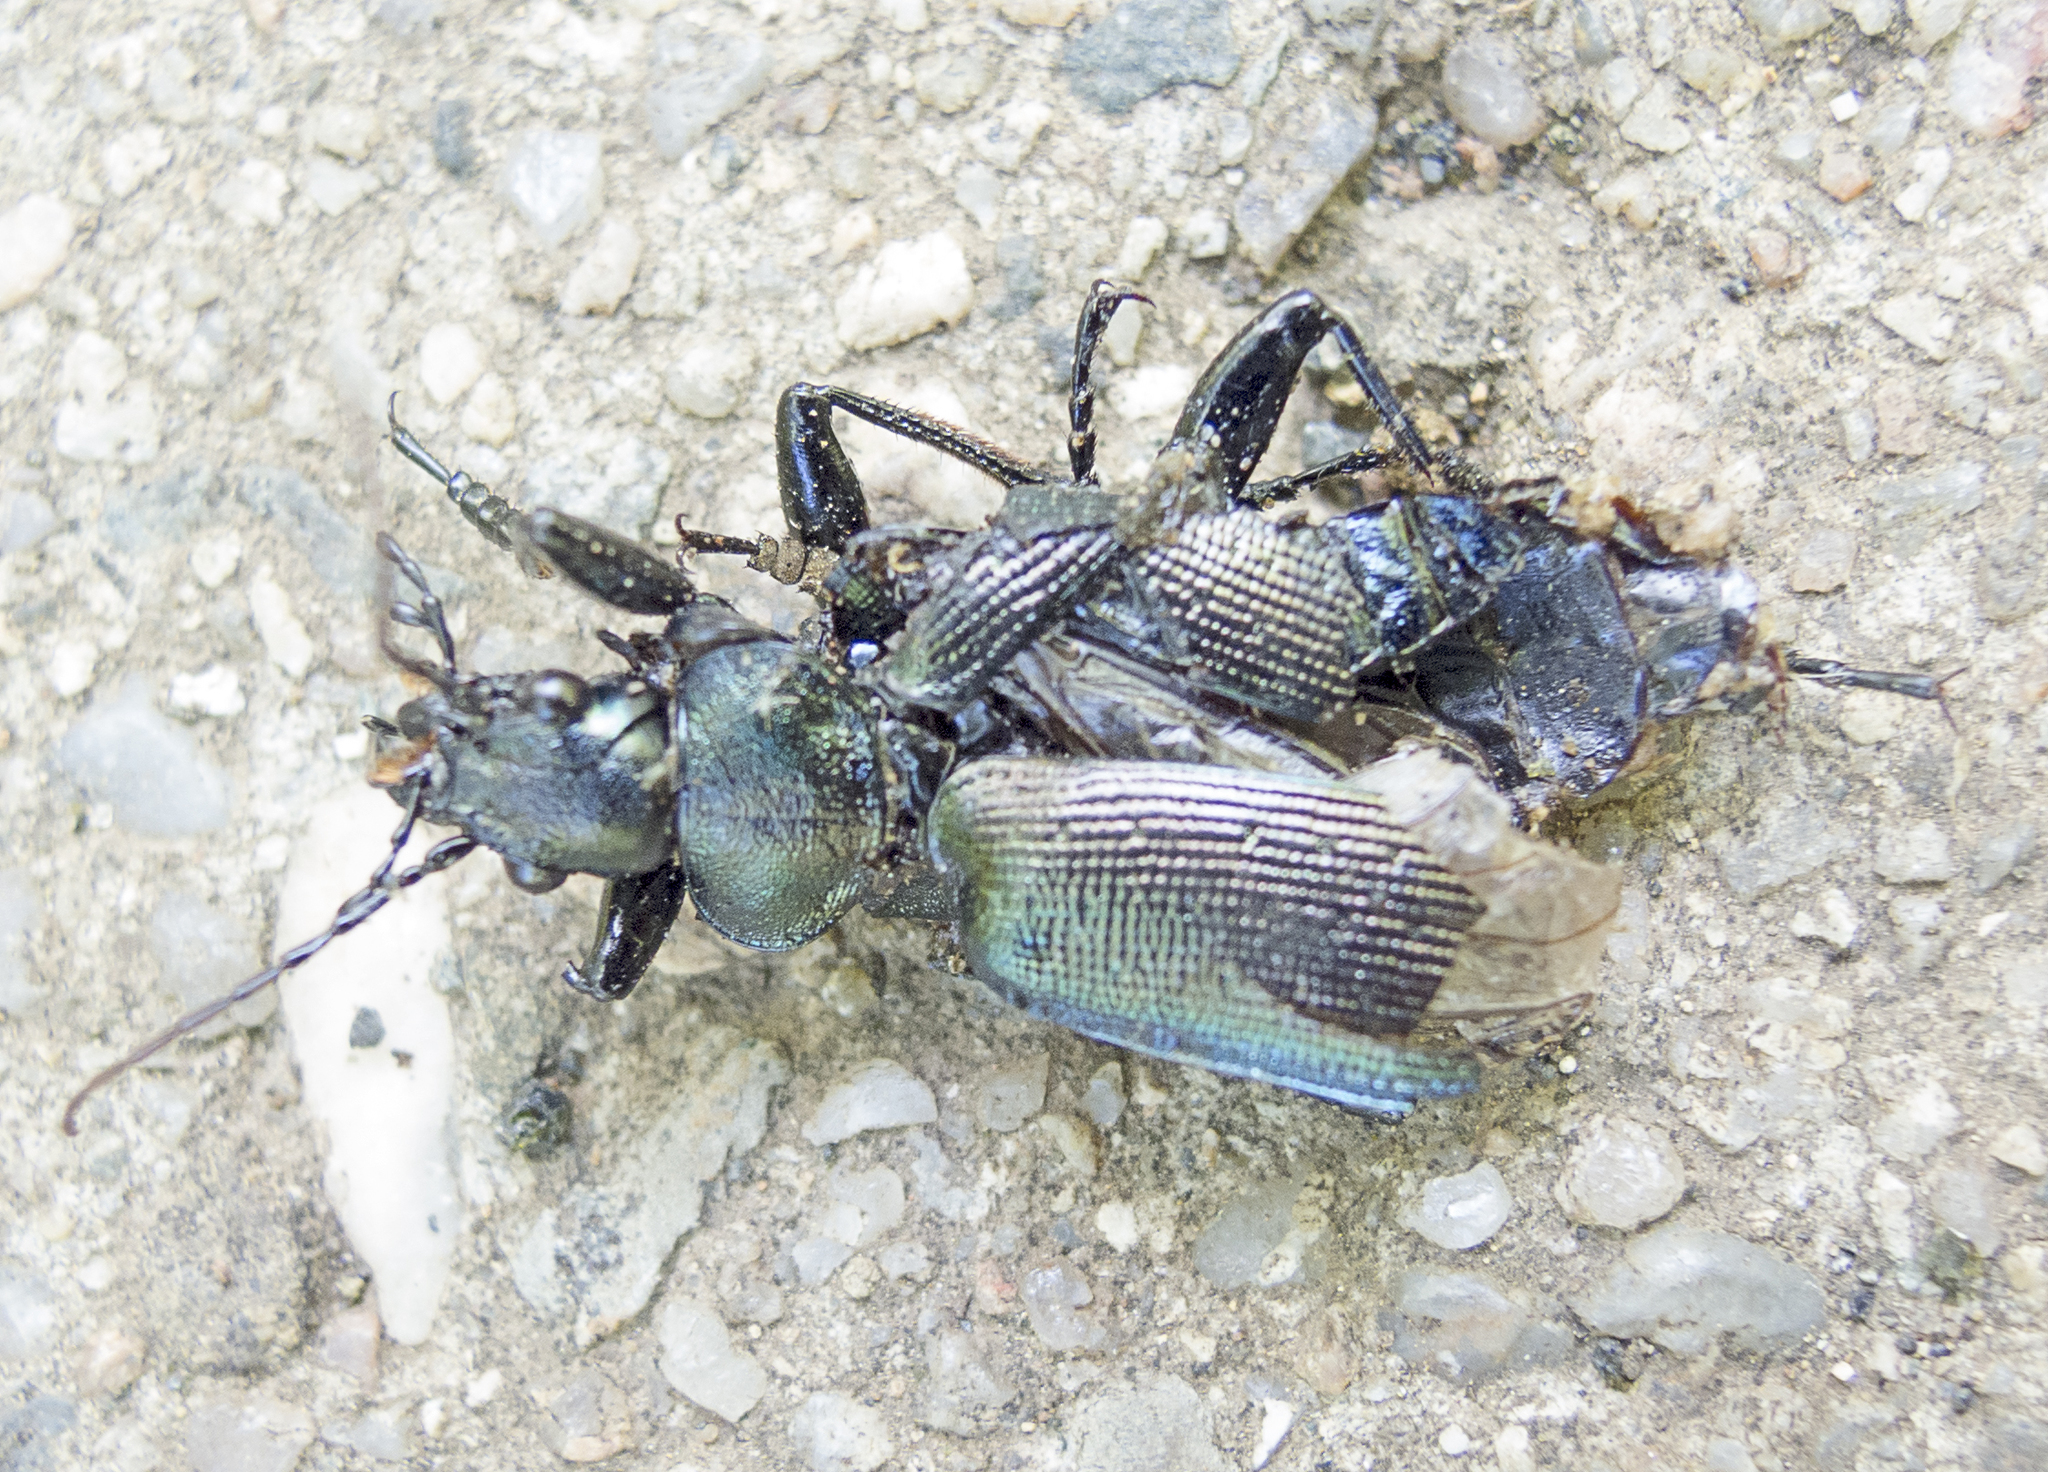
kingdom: Animalia
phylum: Arthropoda
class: Insecta
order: Coleoptera
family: Carabidae
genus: Calosoma
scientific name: Calosoma inquisitor
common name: Caterpillar-hunter
